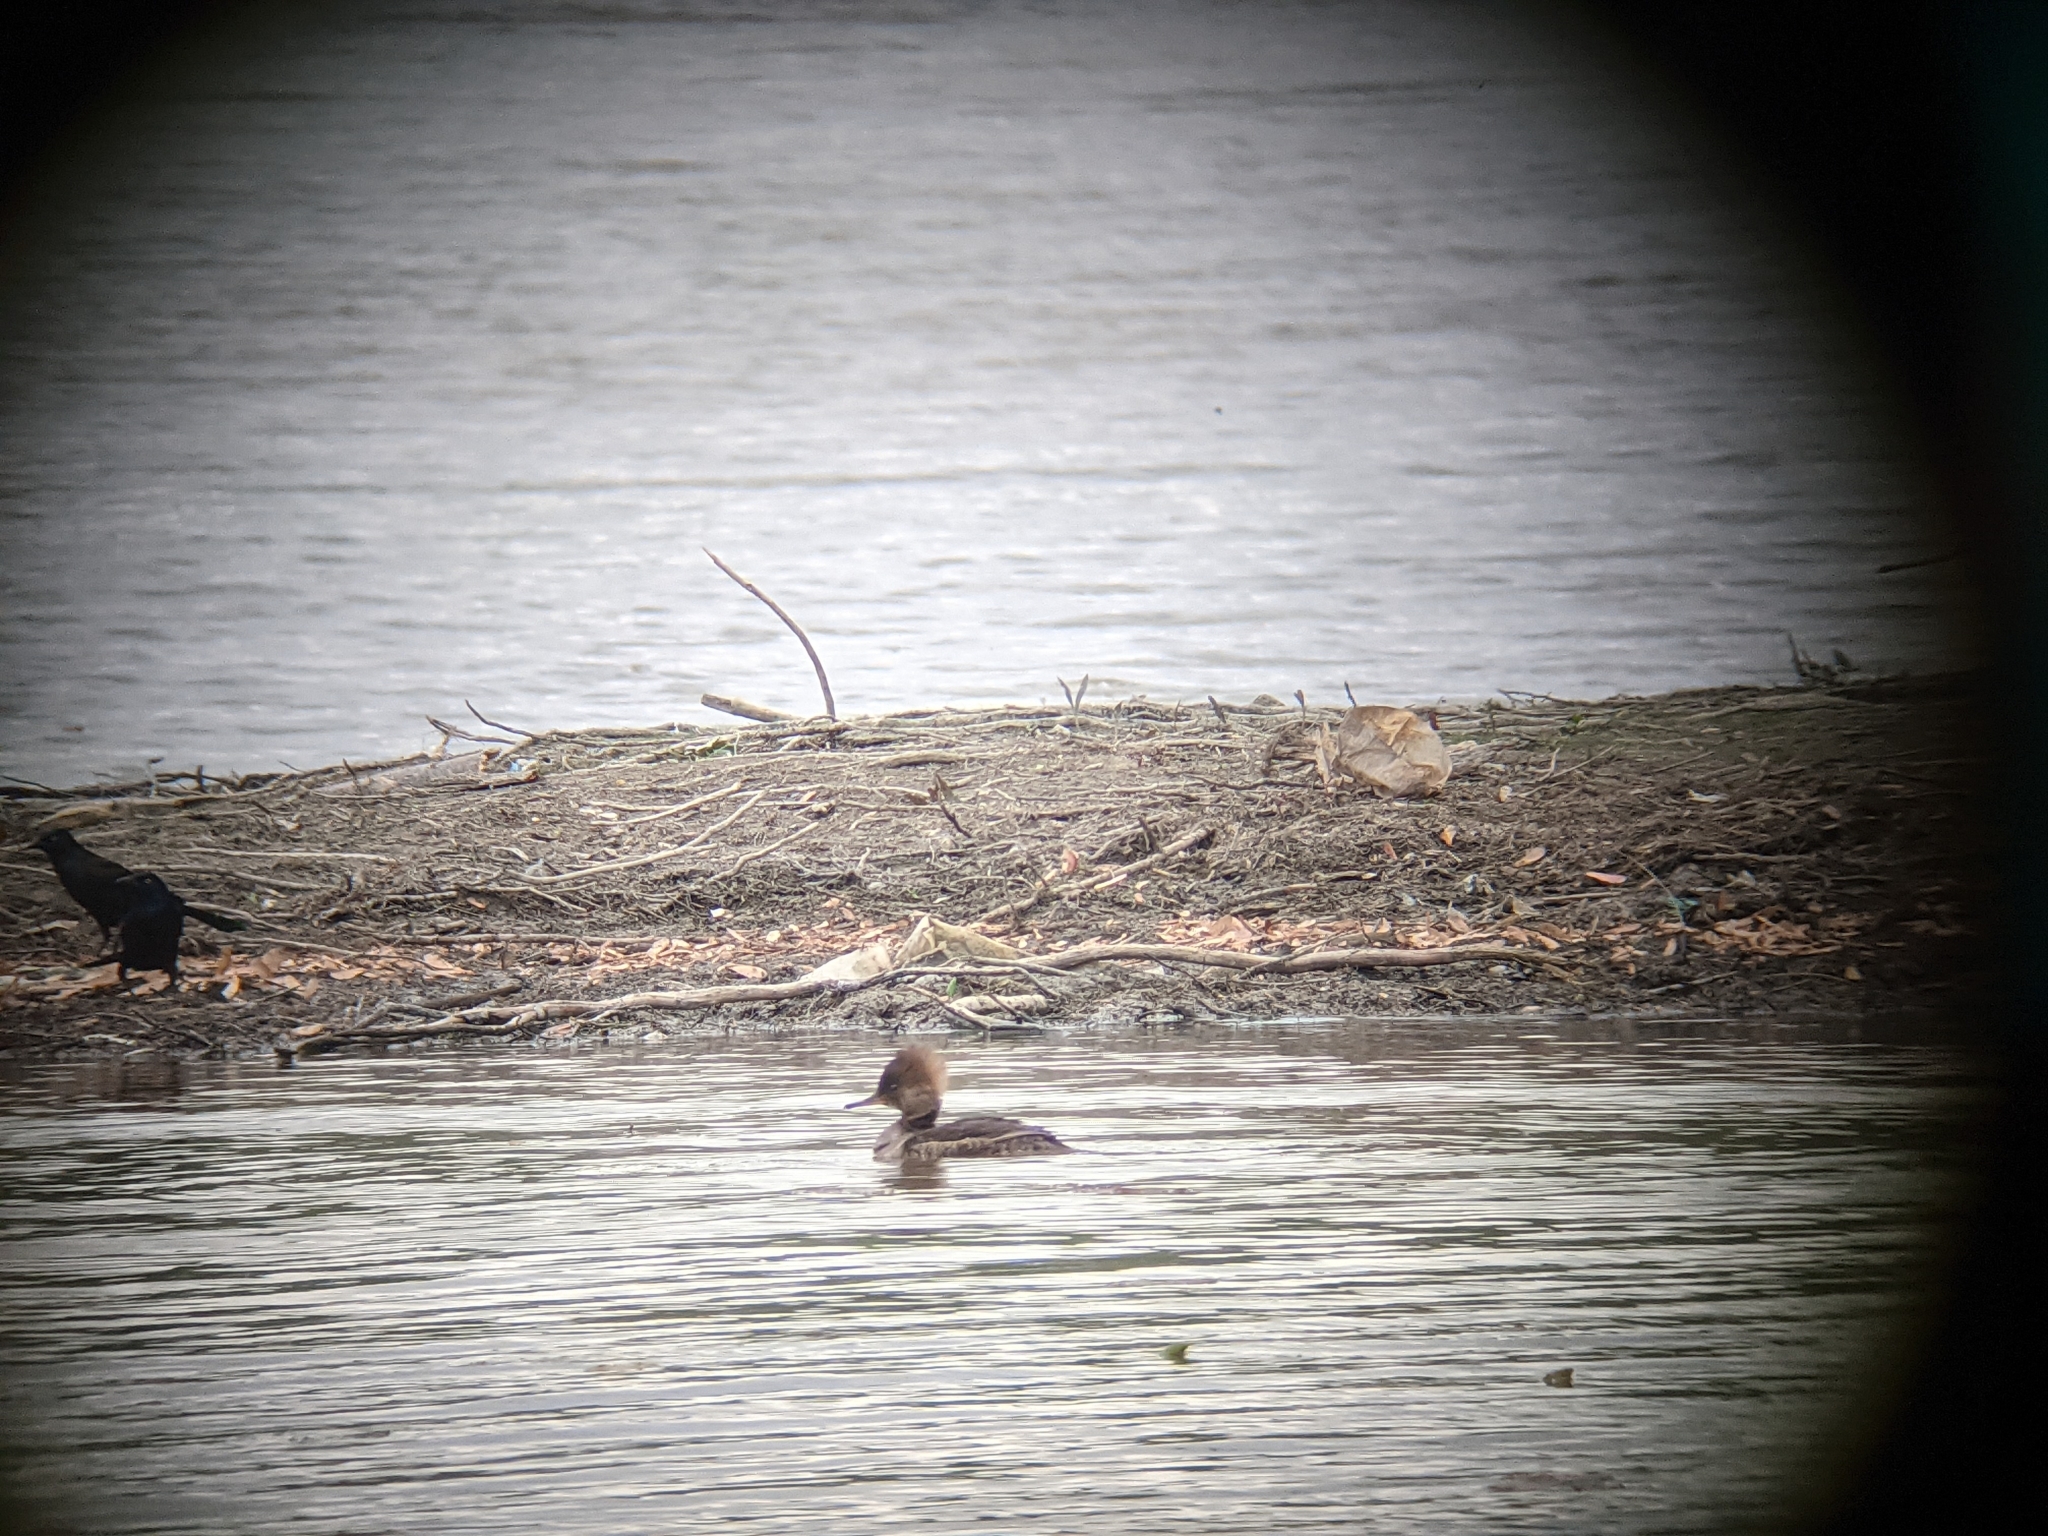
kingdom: Animalia
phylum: Chordata
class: Aves
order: Anseriformes
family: Anatidae
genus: Lophodytes
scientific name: Lophodytes cucullatus
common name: Hooded merganser
